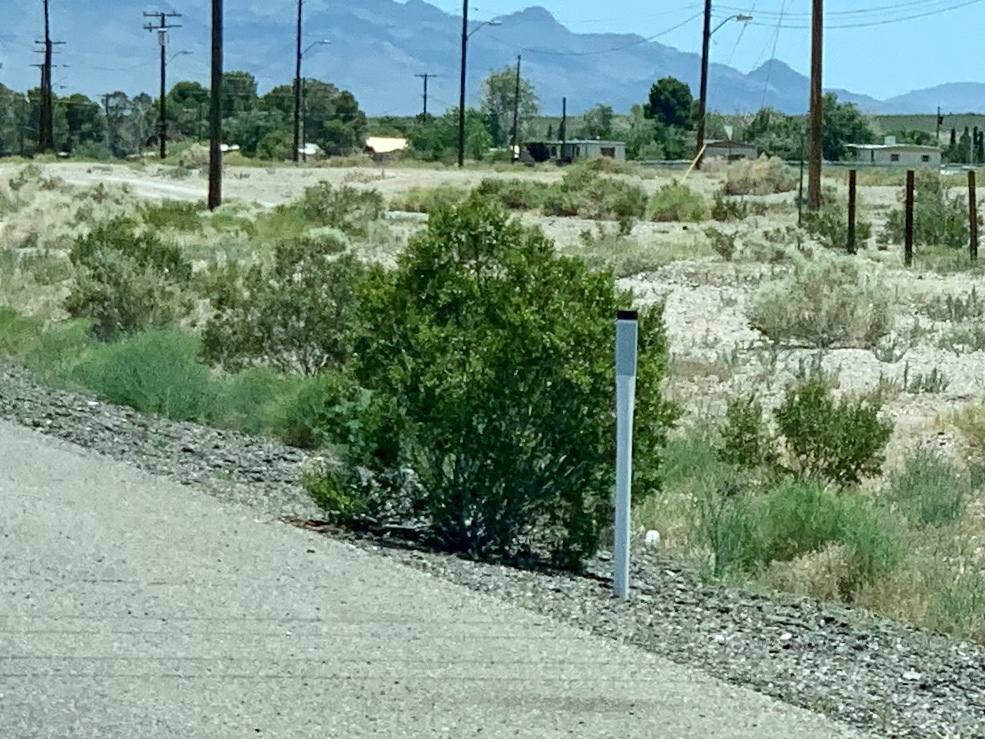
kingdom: Plantae
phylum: Tracheophyta
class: Magnoliopsida
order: Zygophyllales
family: Zygophyllaceae
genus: Larrea
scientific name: Larrea tridentata
